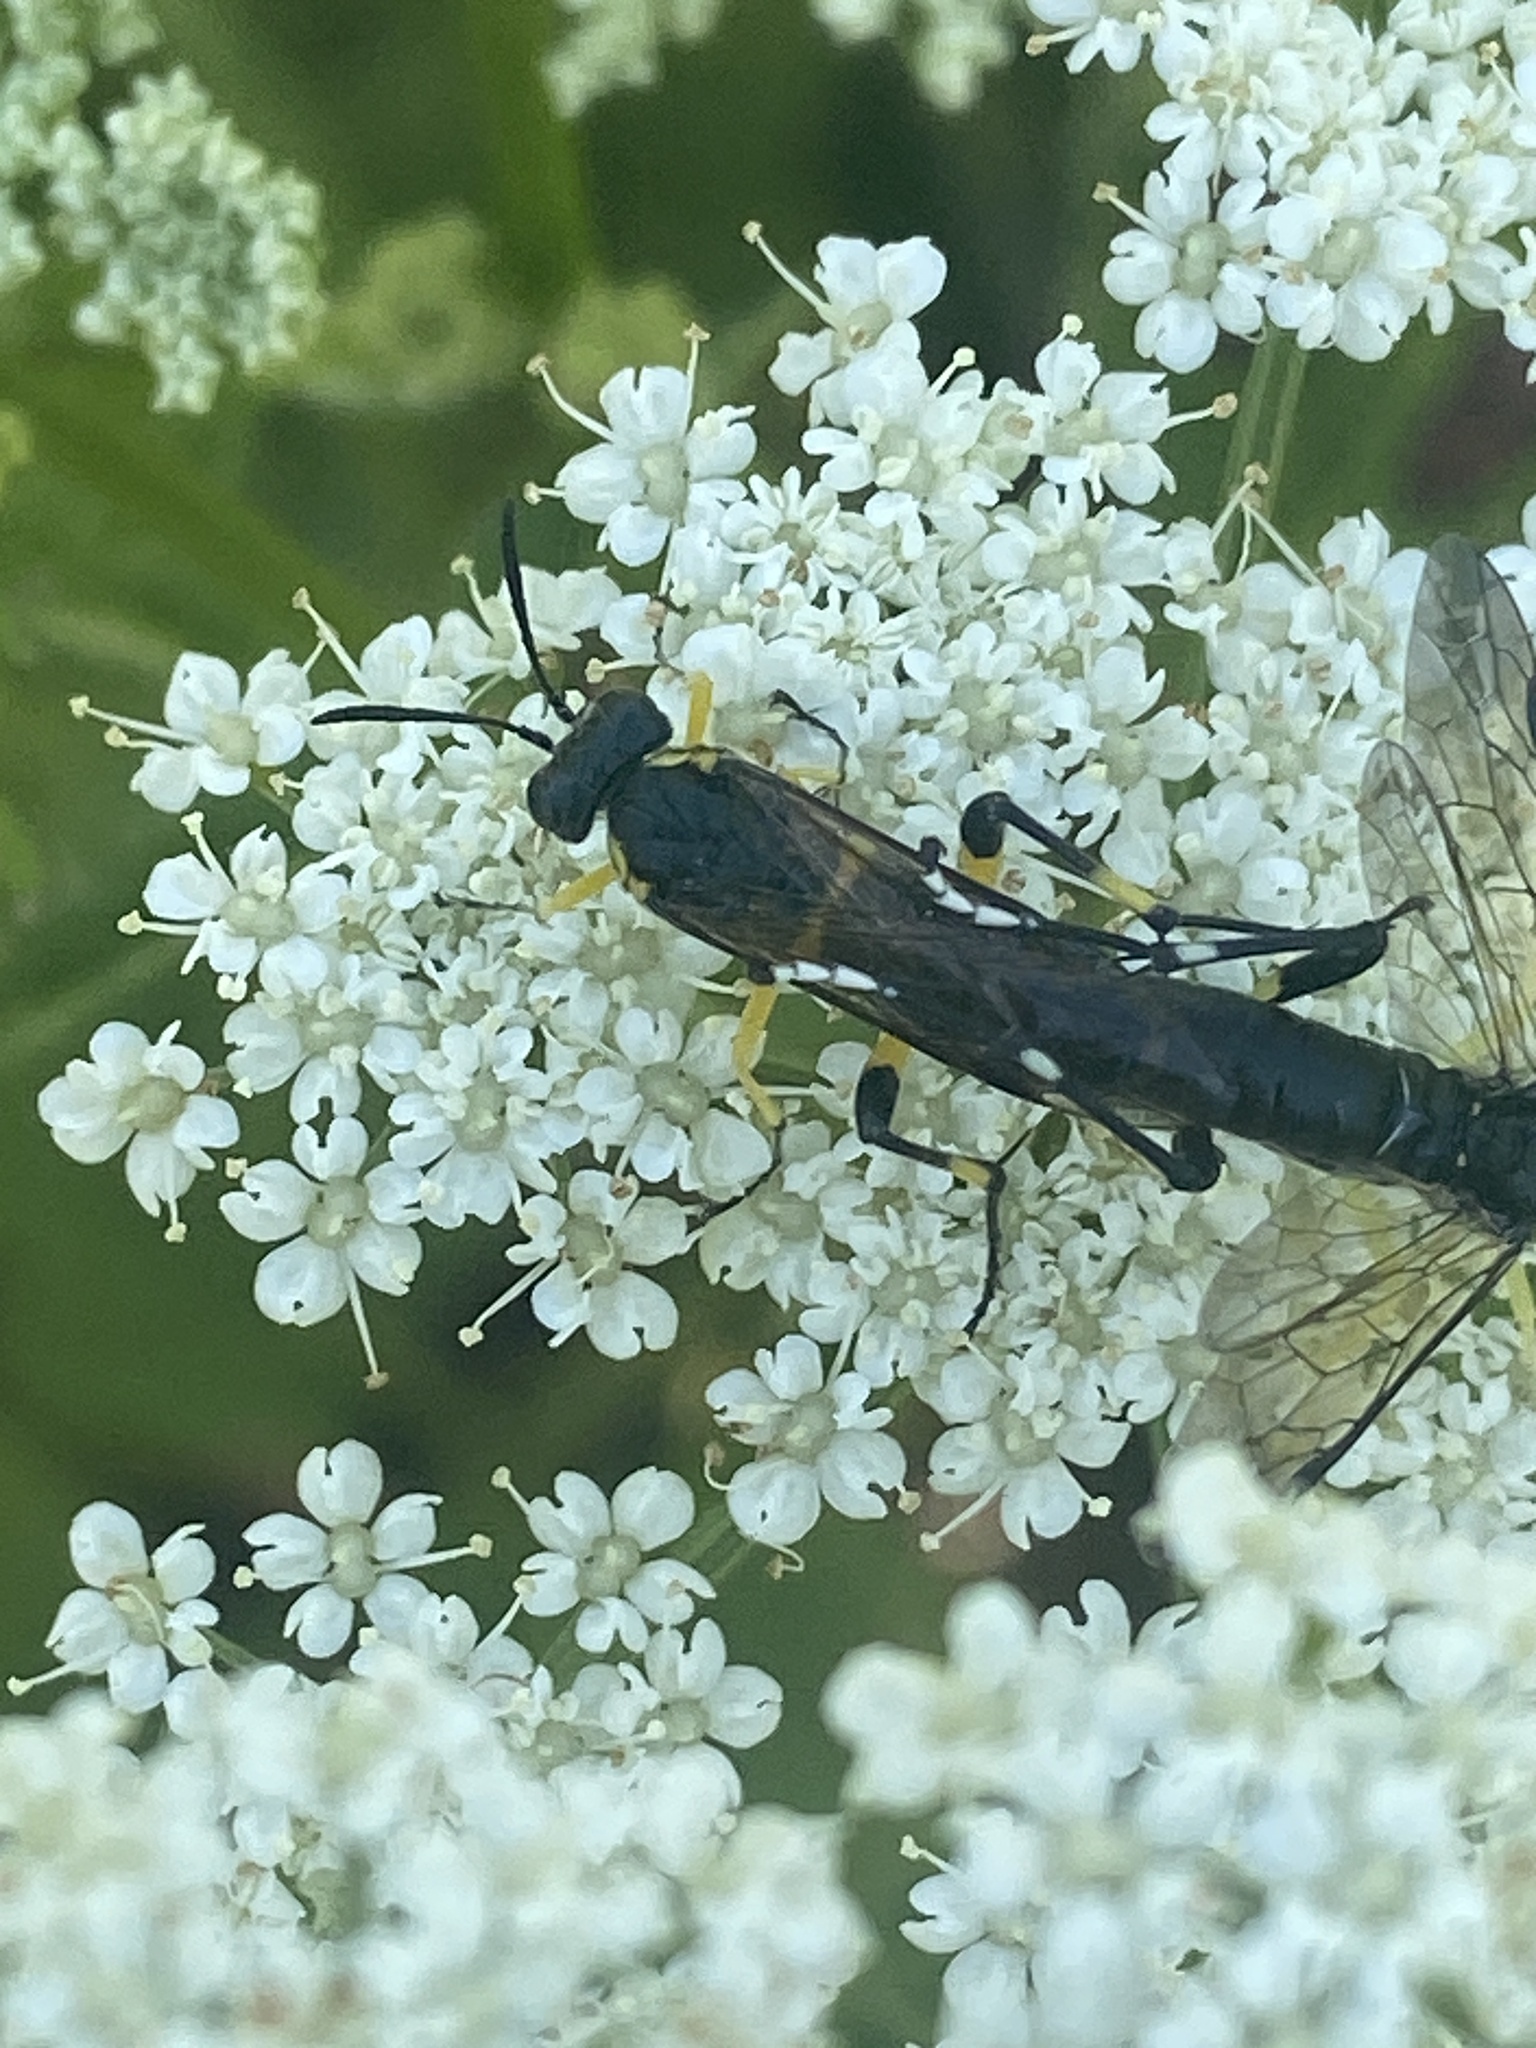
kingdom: Animalia
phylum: Arthropoda
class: Insecta
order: Hymenoptera
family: Tenthredinidae
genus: Macrophya
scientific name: Macrophya montana
